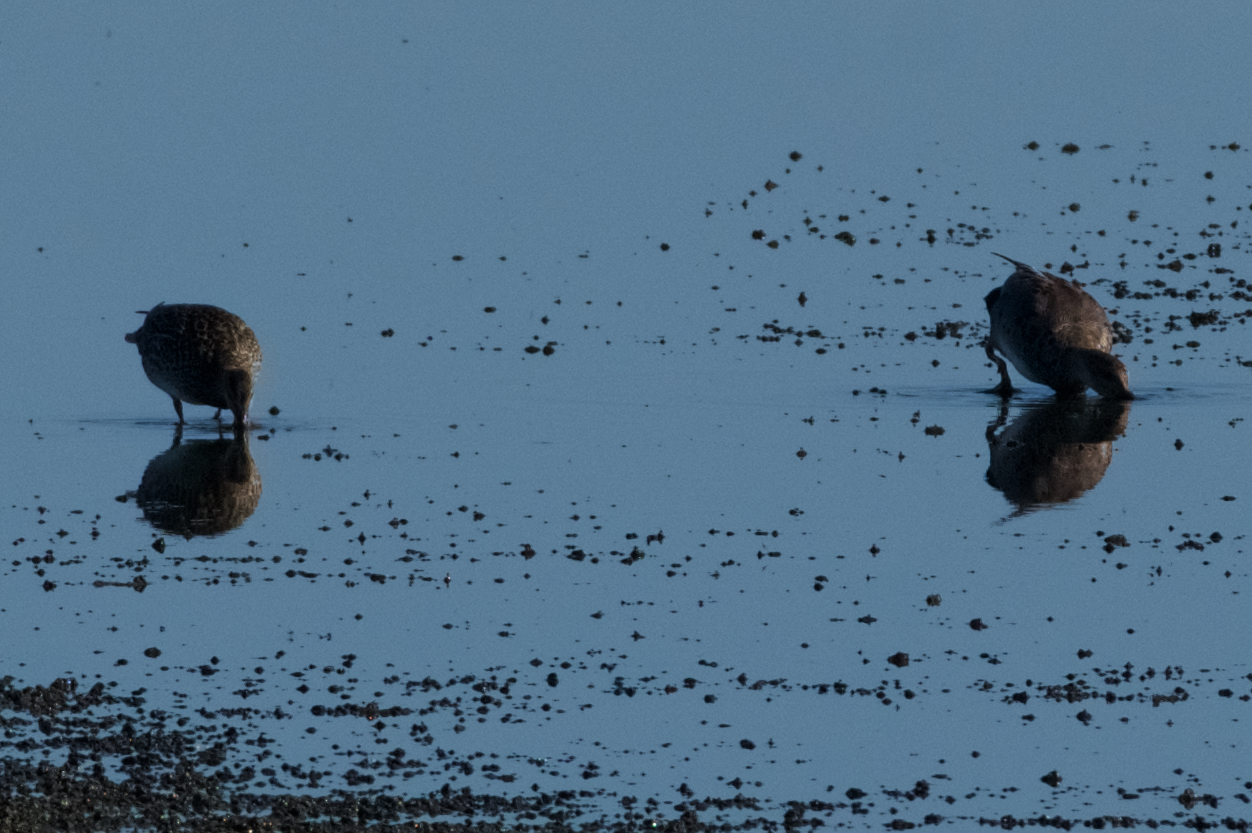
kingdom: Animalia
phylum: Chordata
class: Aves
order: Anseriformes
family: Anatidae
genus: Mareca
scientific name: Mareca strepera
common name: Gadwall
